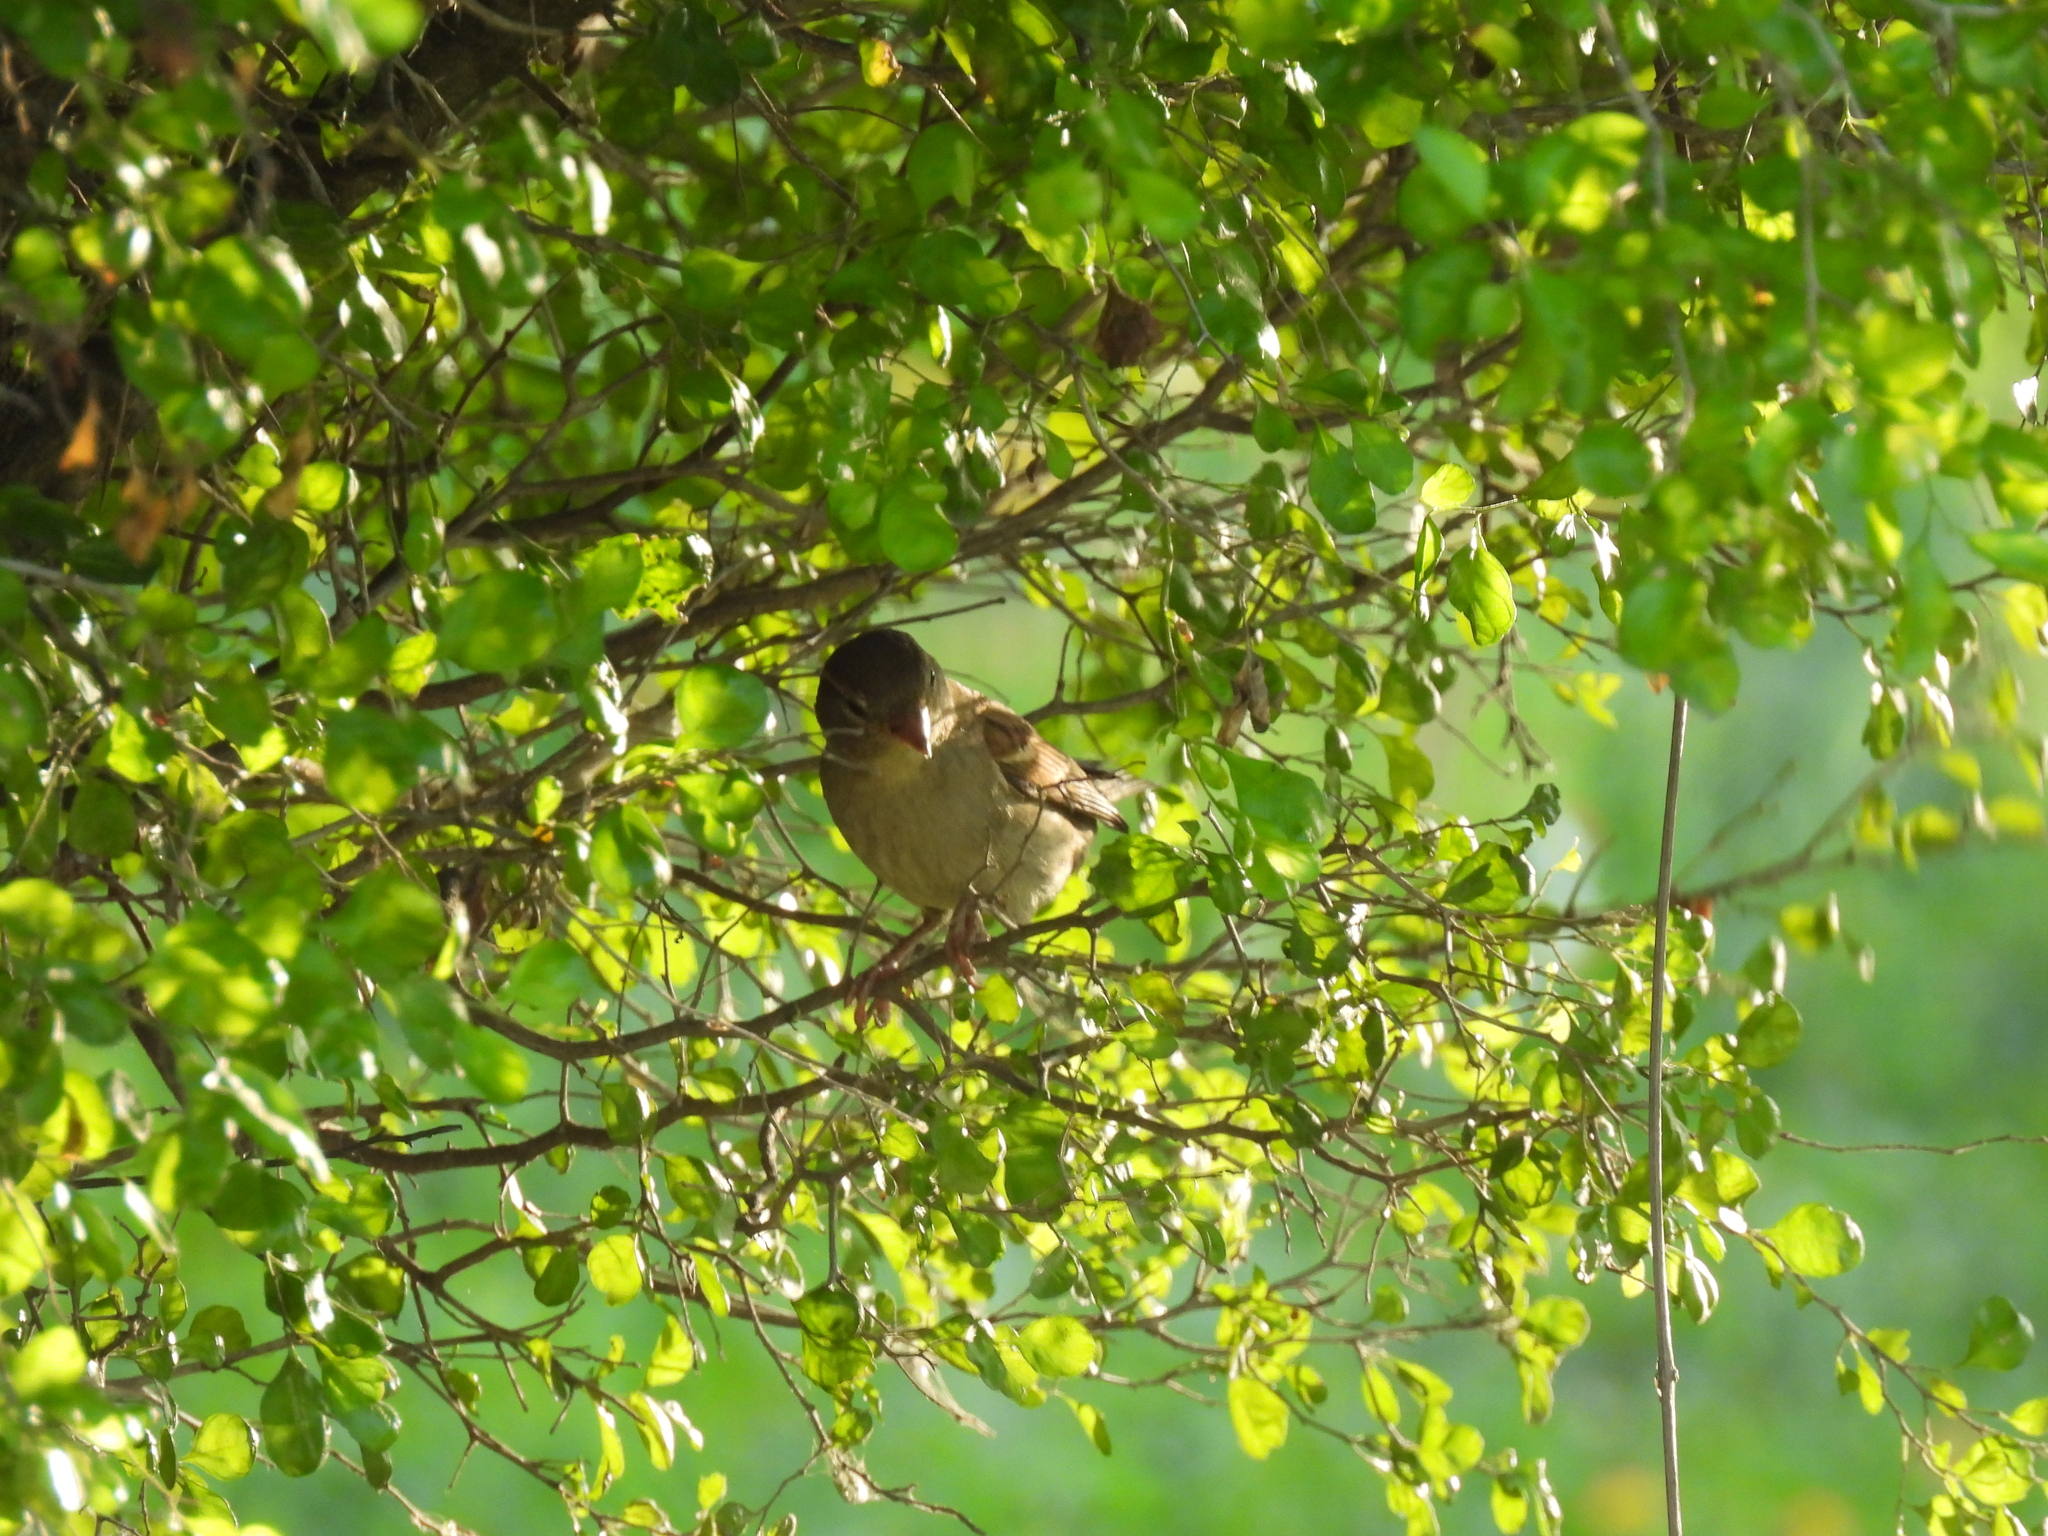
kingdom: Animalia
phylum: Chordata
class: Aves
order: Passeriformes
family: Passeridae
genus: Passer
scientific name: Passer domesticus
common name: House sparrow
